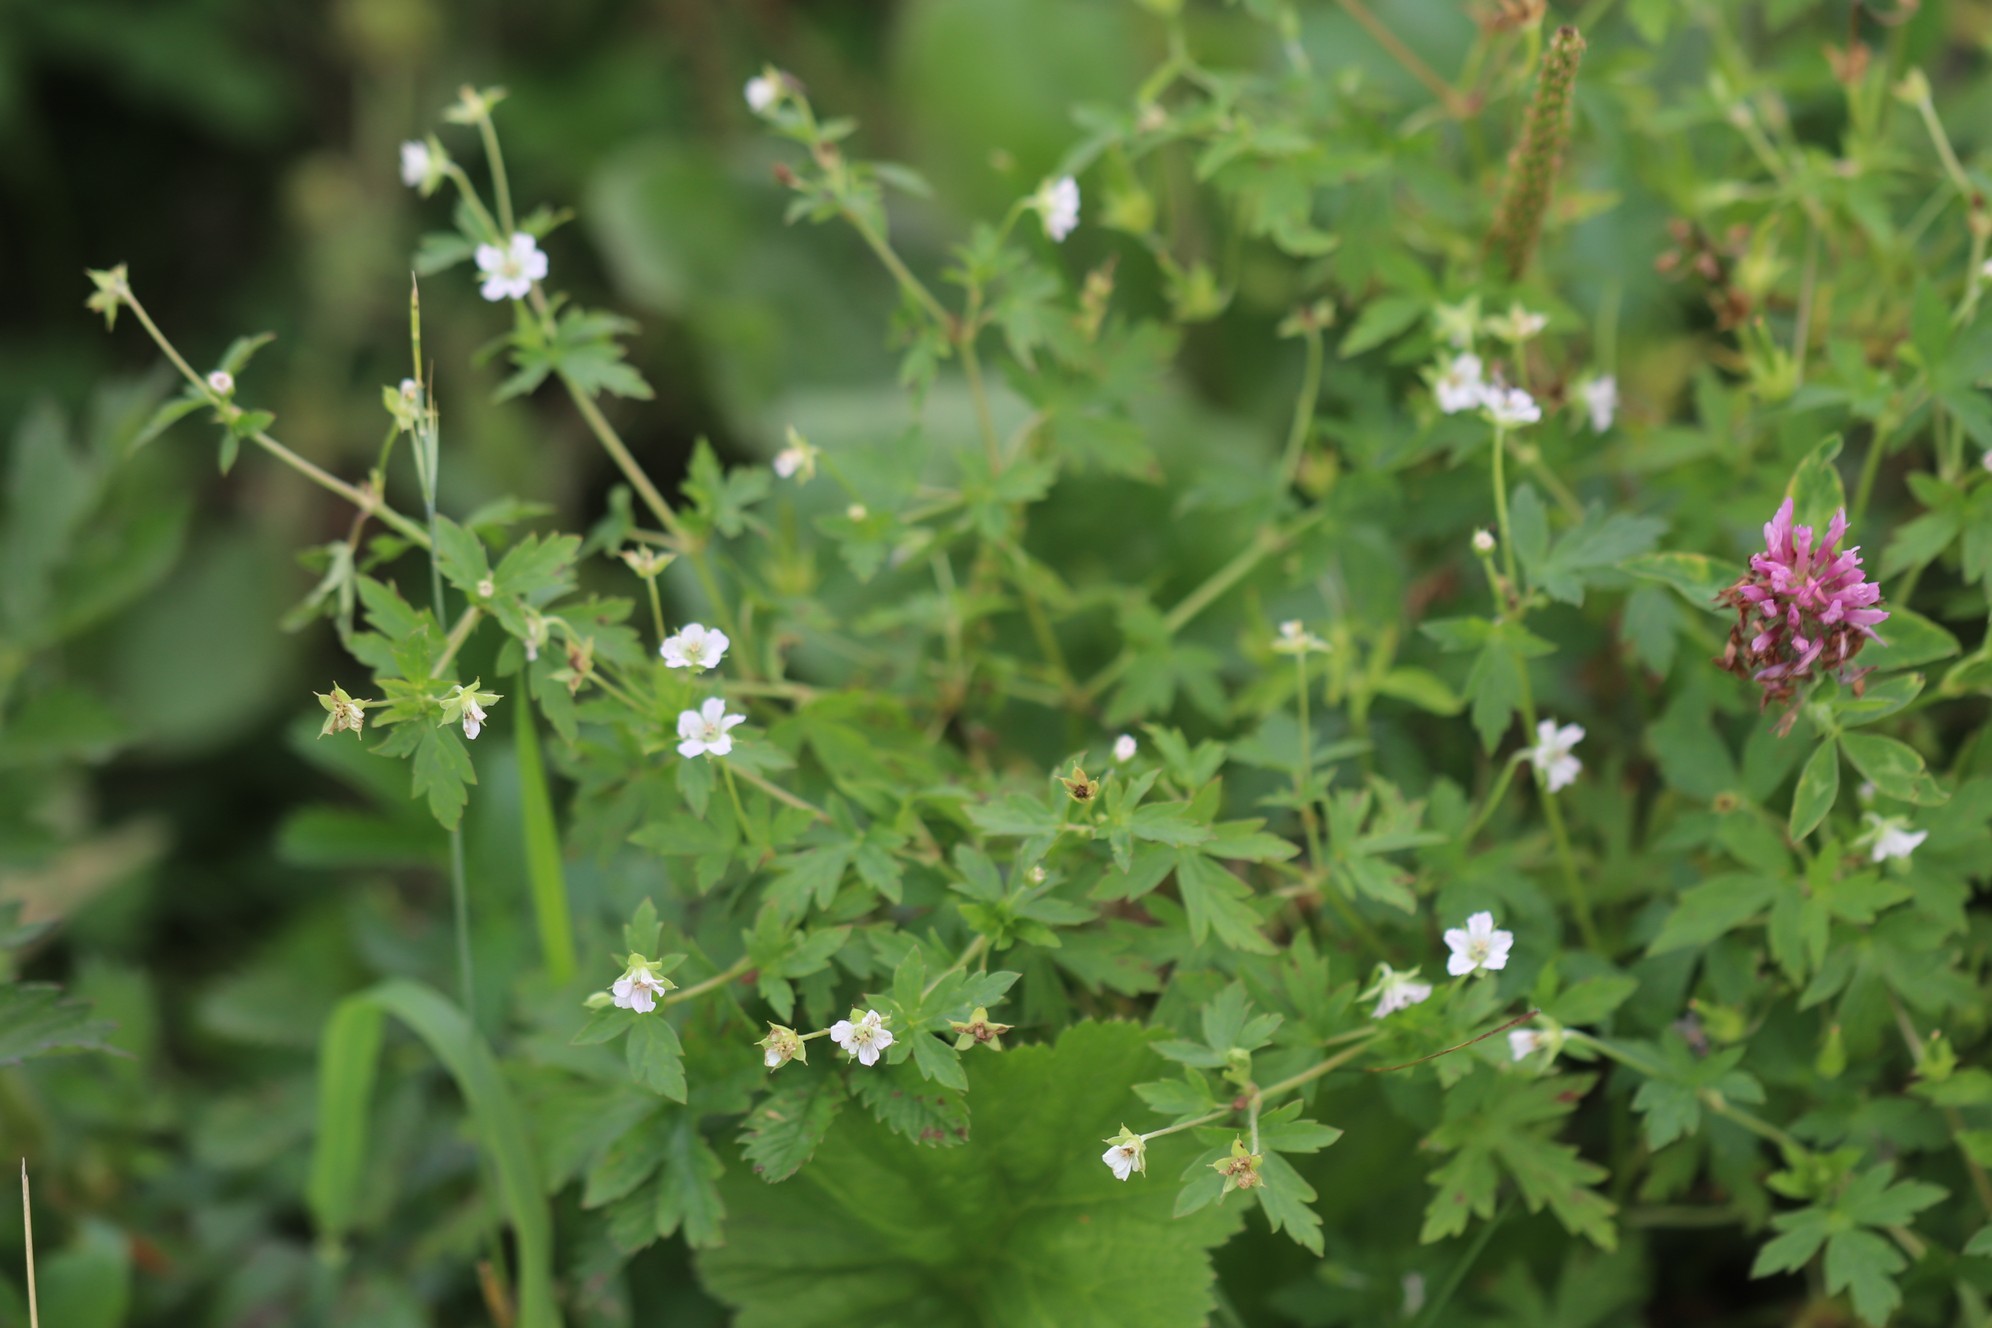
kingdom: Plantae
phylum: Tracheophyta
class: Magnoliopsida
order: Geraniales
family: Geraniaceae
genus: Geranium
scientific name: Geranium sibiricum
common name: Siberian crane's-bill
